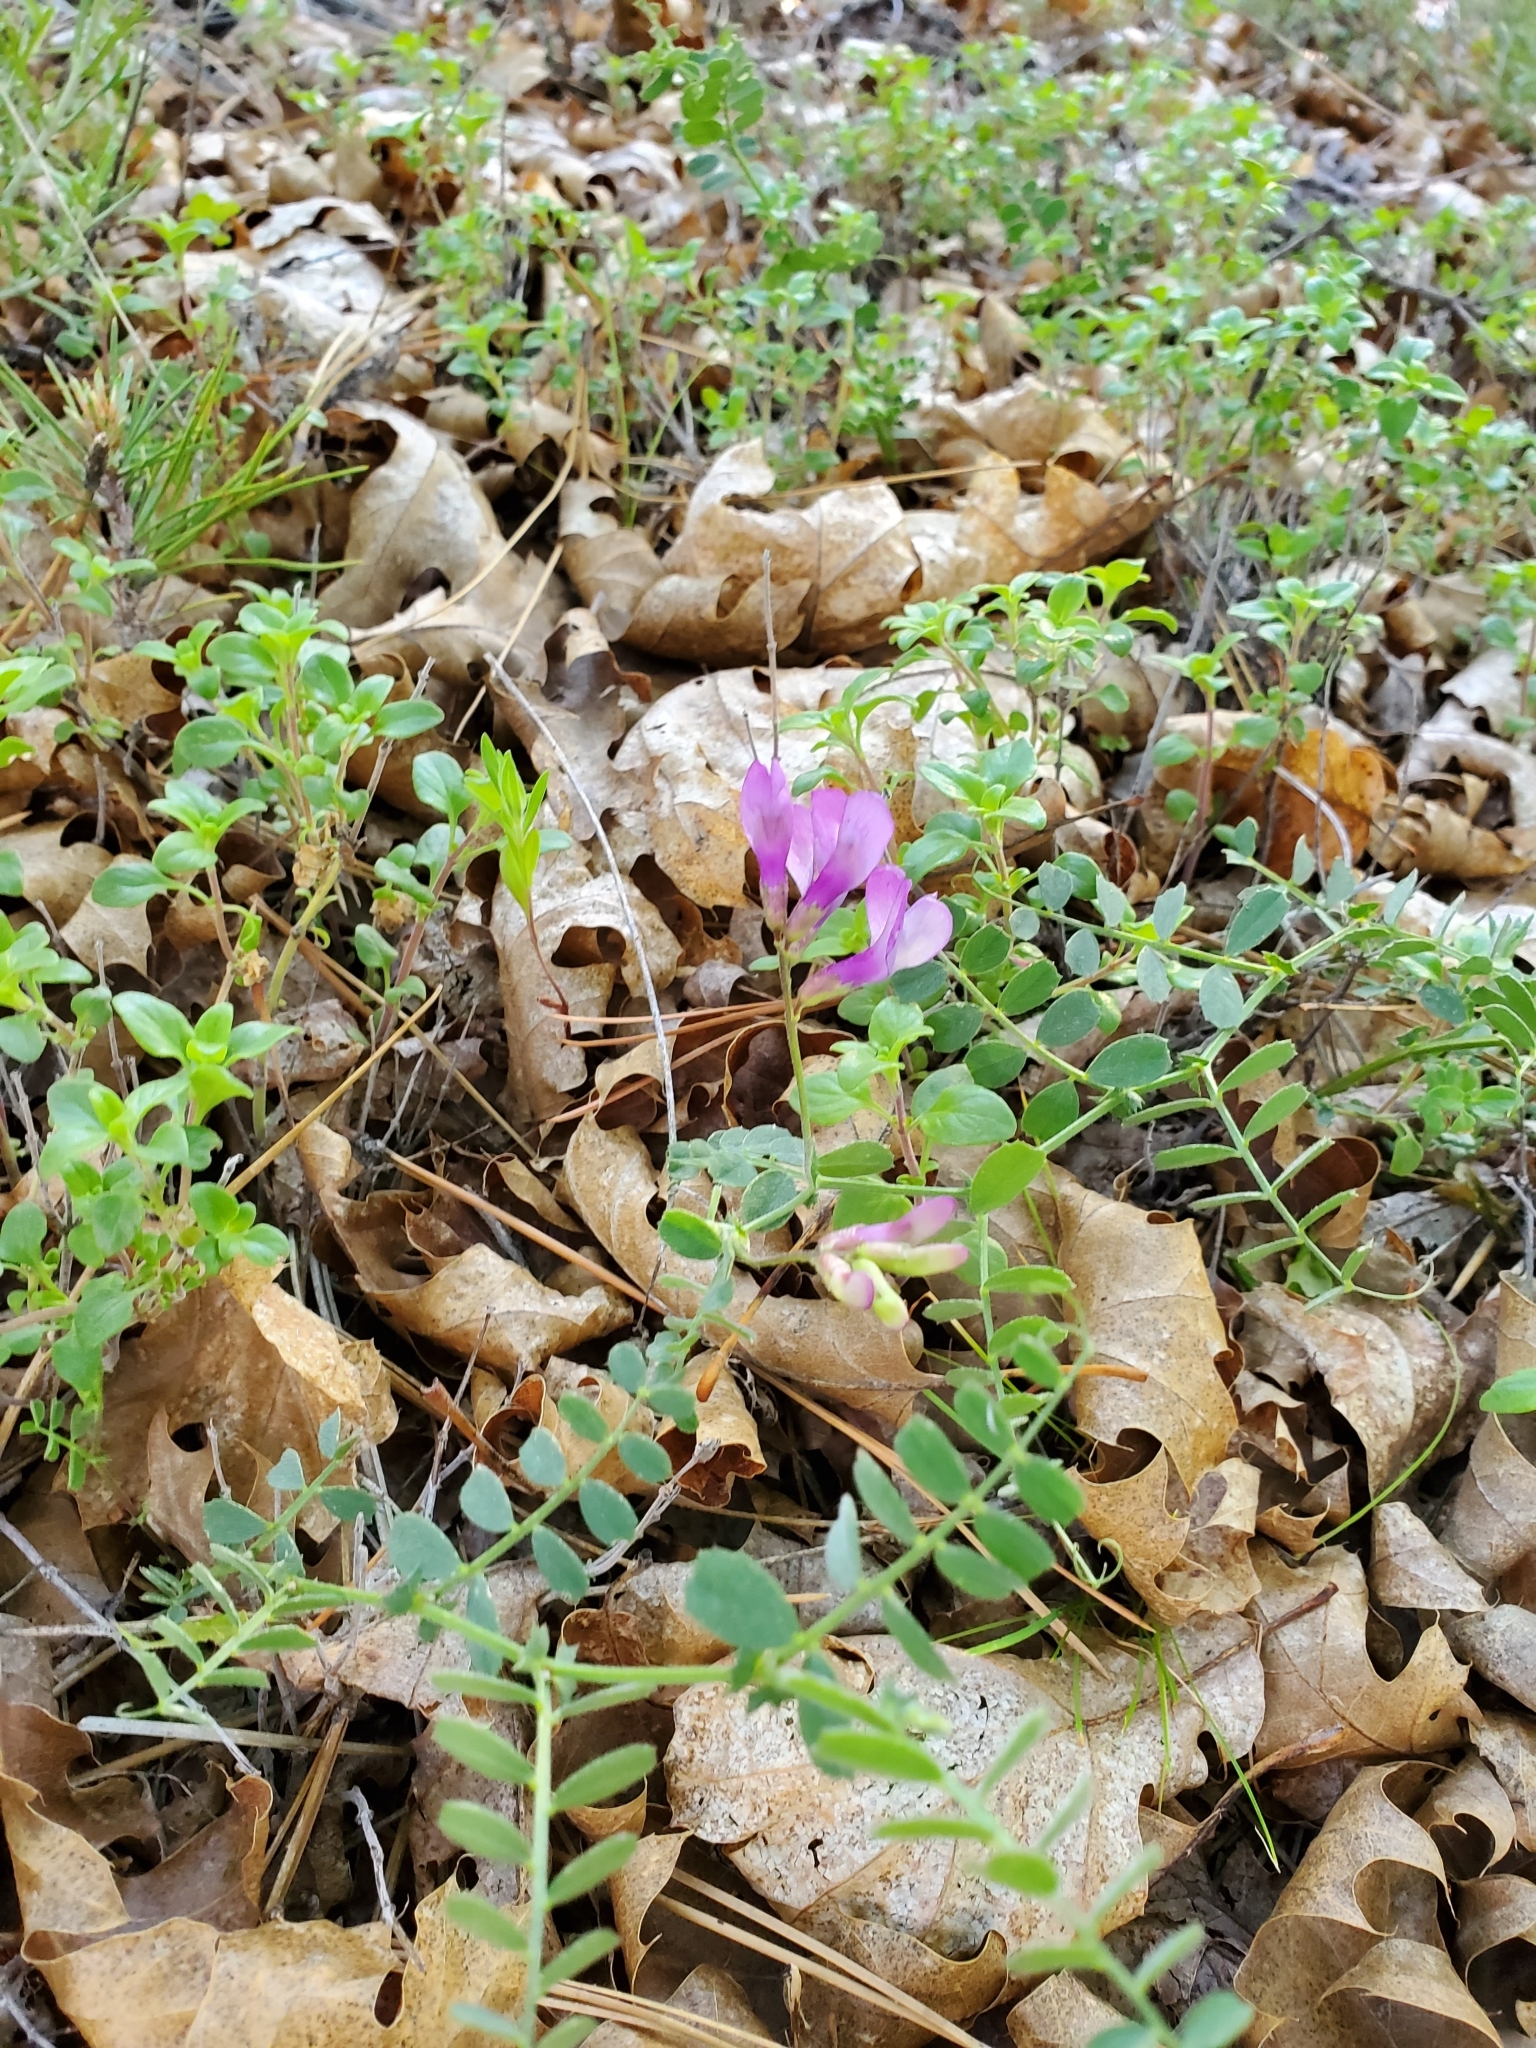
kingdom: Plantae
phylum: Tracheophyta
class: Magnoliopsida
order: Fabales
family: Fabaceae
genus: Vicia
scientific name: Vicia americana
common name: American vetch
